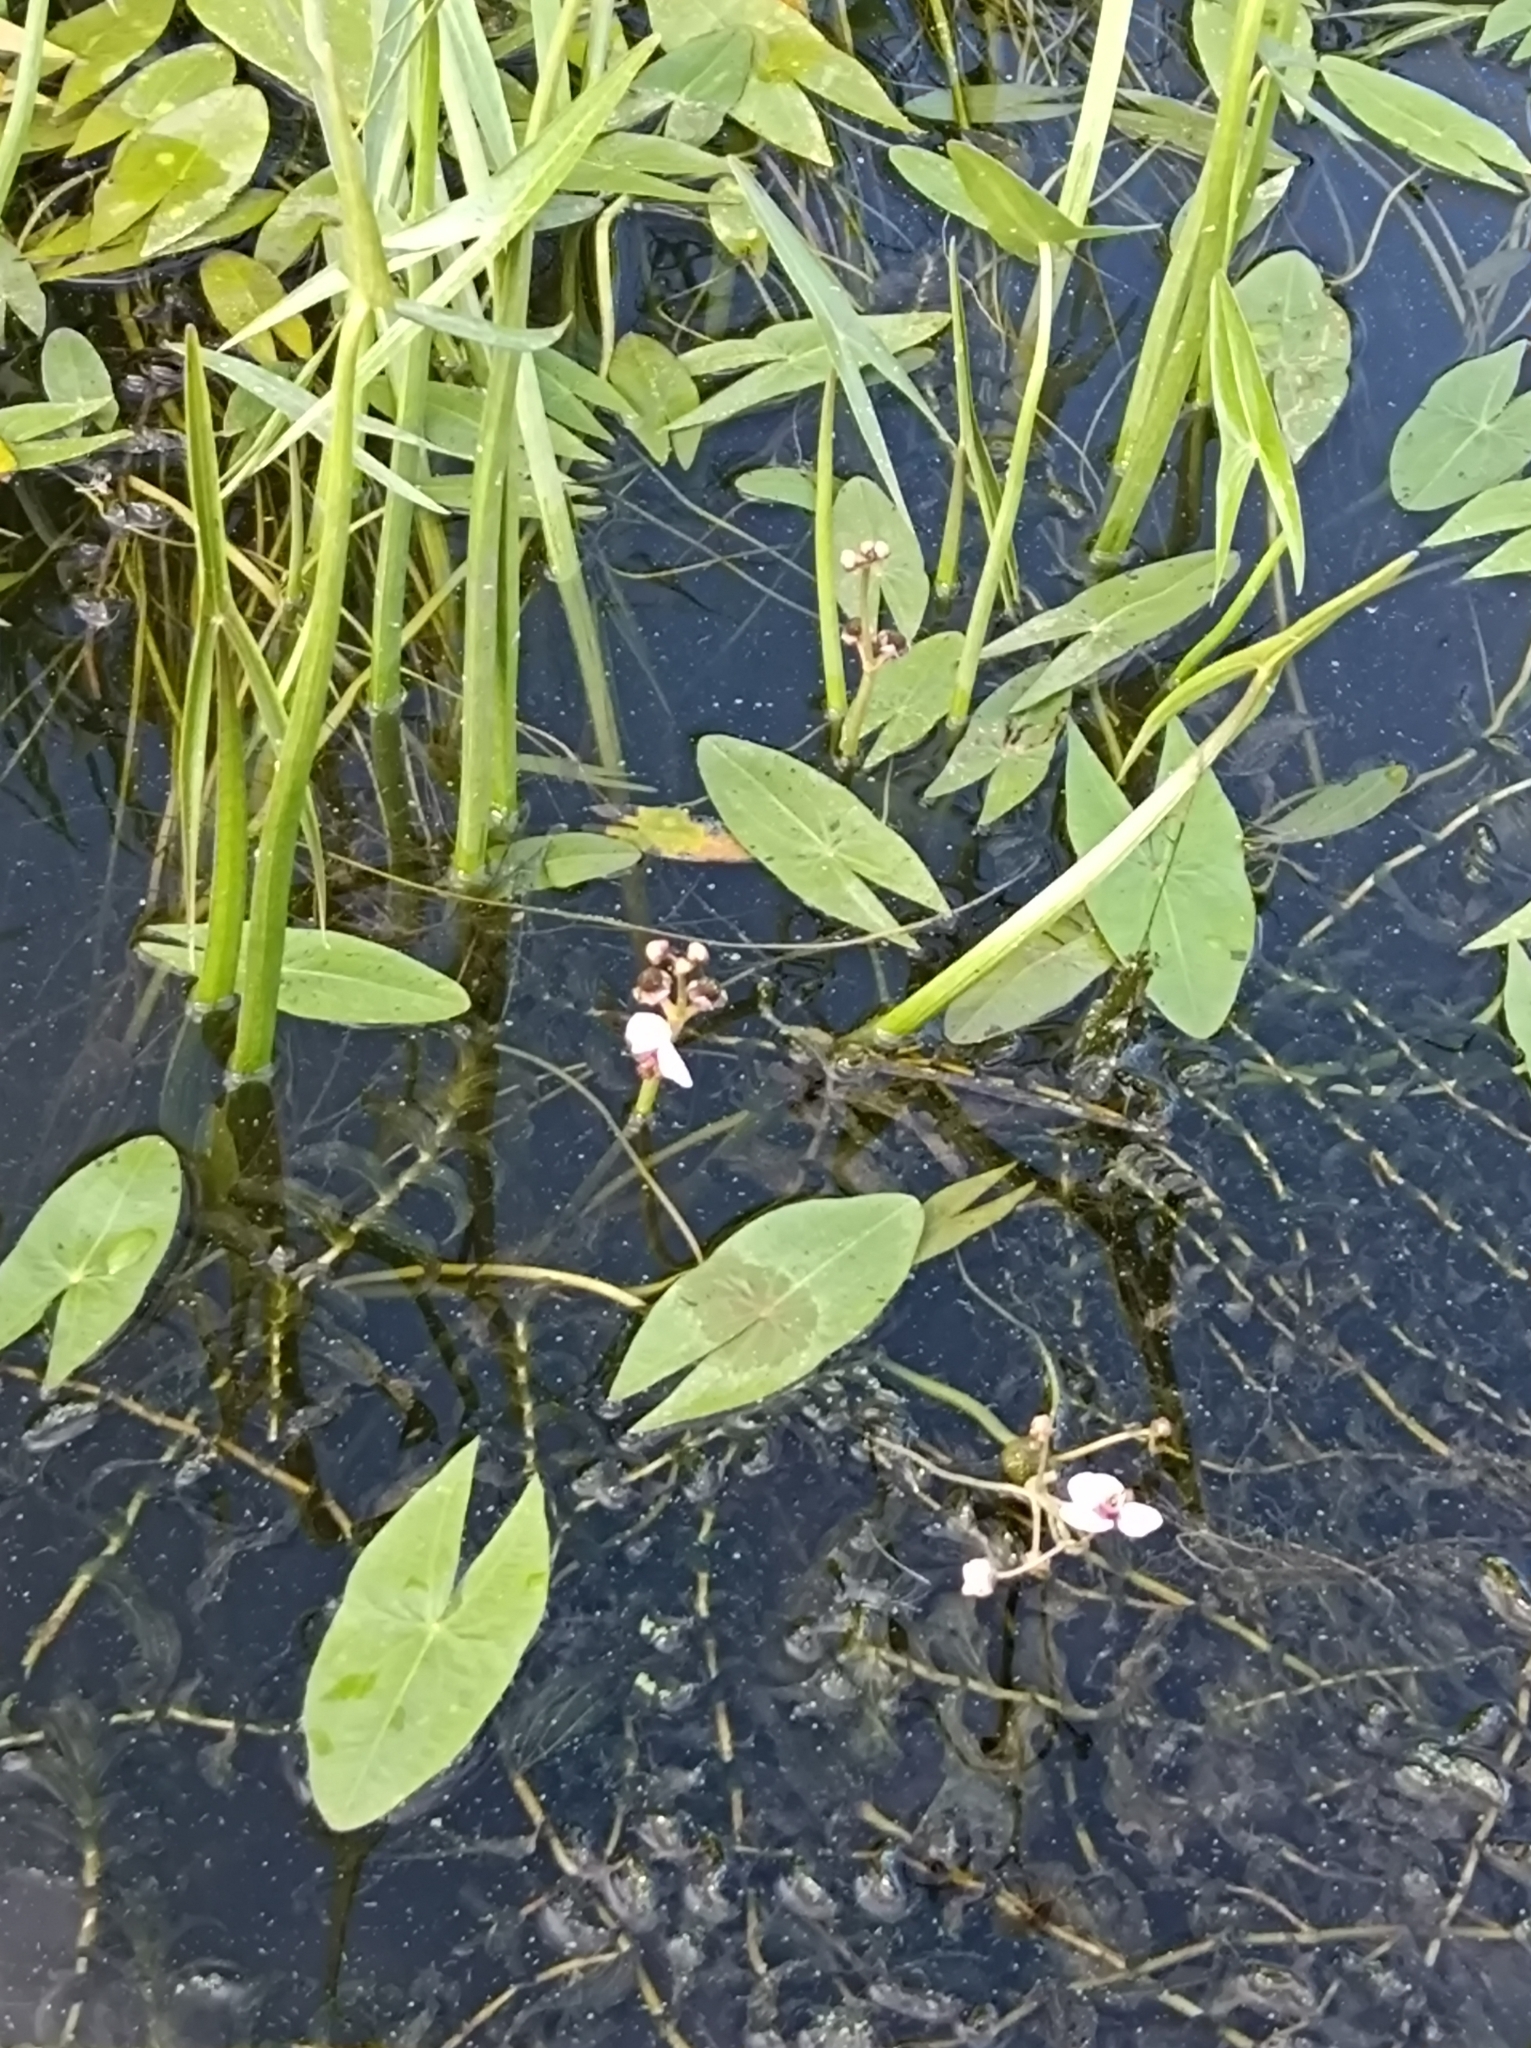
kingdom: Plantae
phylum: Tracheophyta
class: Liliopsida
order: Alismatales
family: Alismataceae
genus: Sagittaria
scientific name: Sagittaria sagittifolia
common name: Arrowhead
